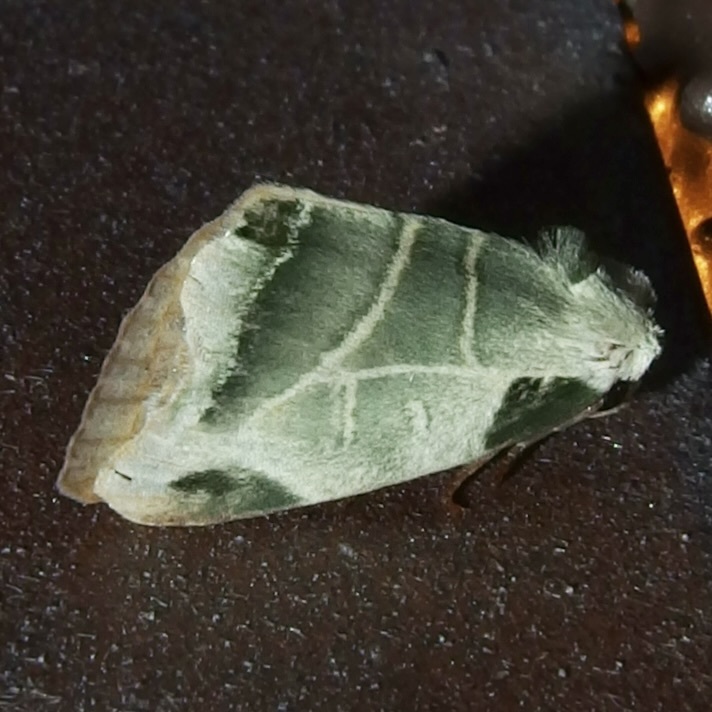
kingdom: Animalia
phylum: Arthropoda
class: Insecta
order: Lepidoptera
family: Noctuidae
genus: Heminocloa
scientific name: Heminocloa mirabilis
